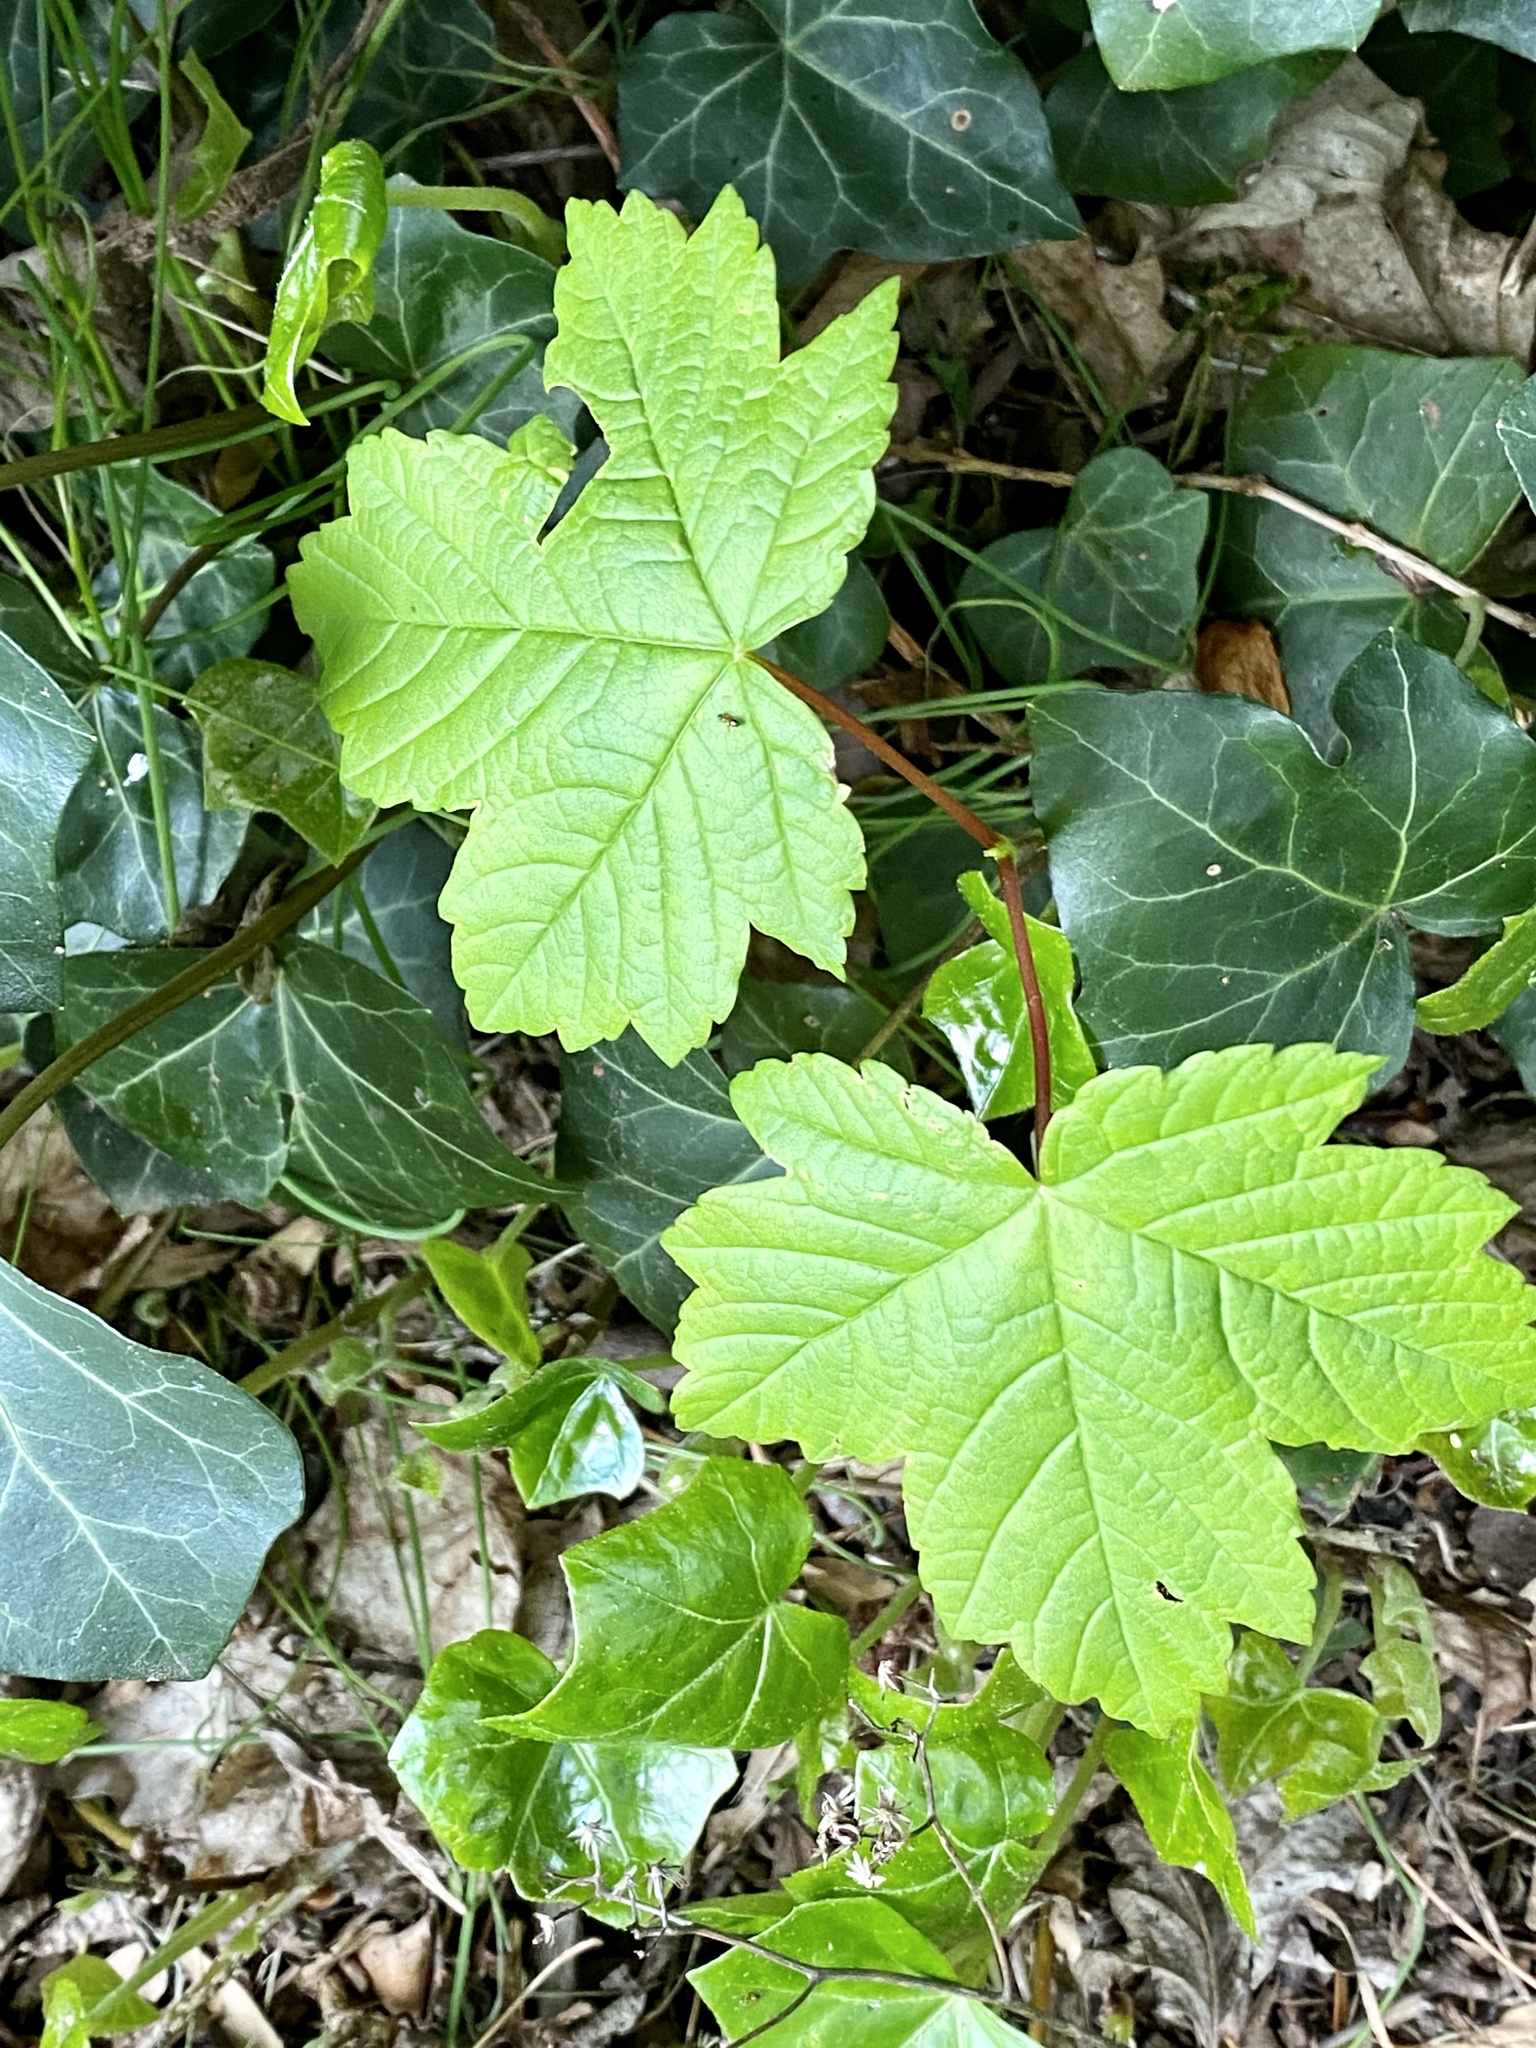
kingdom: Plantae
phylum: Tracheophyta
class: Magnoliopsida
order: Sapindales
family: Sapindaceae
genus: Acer
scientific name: Acer pseudoplatanus
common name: Sycamore
